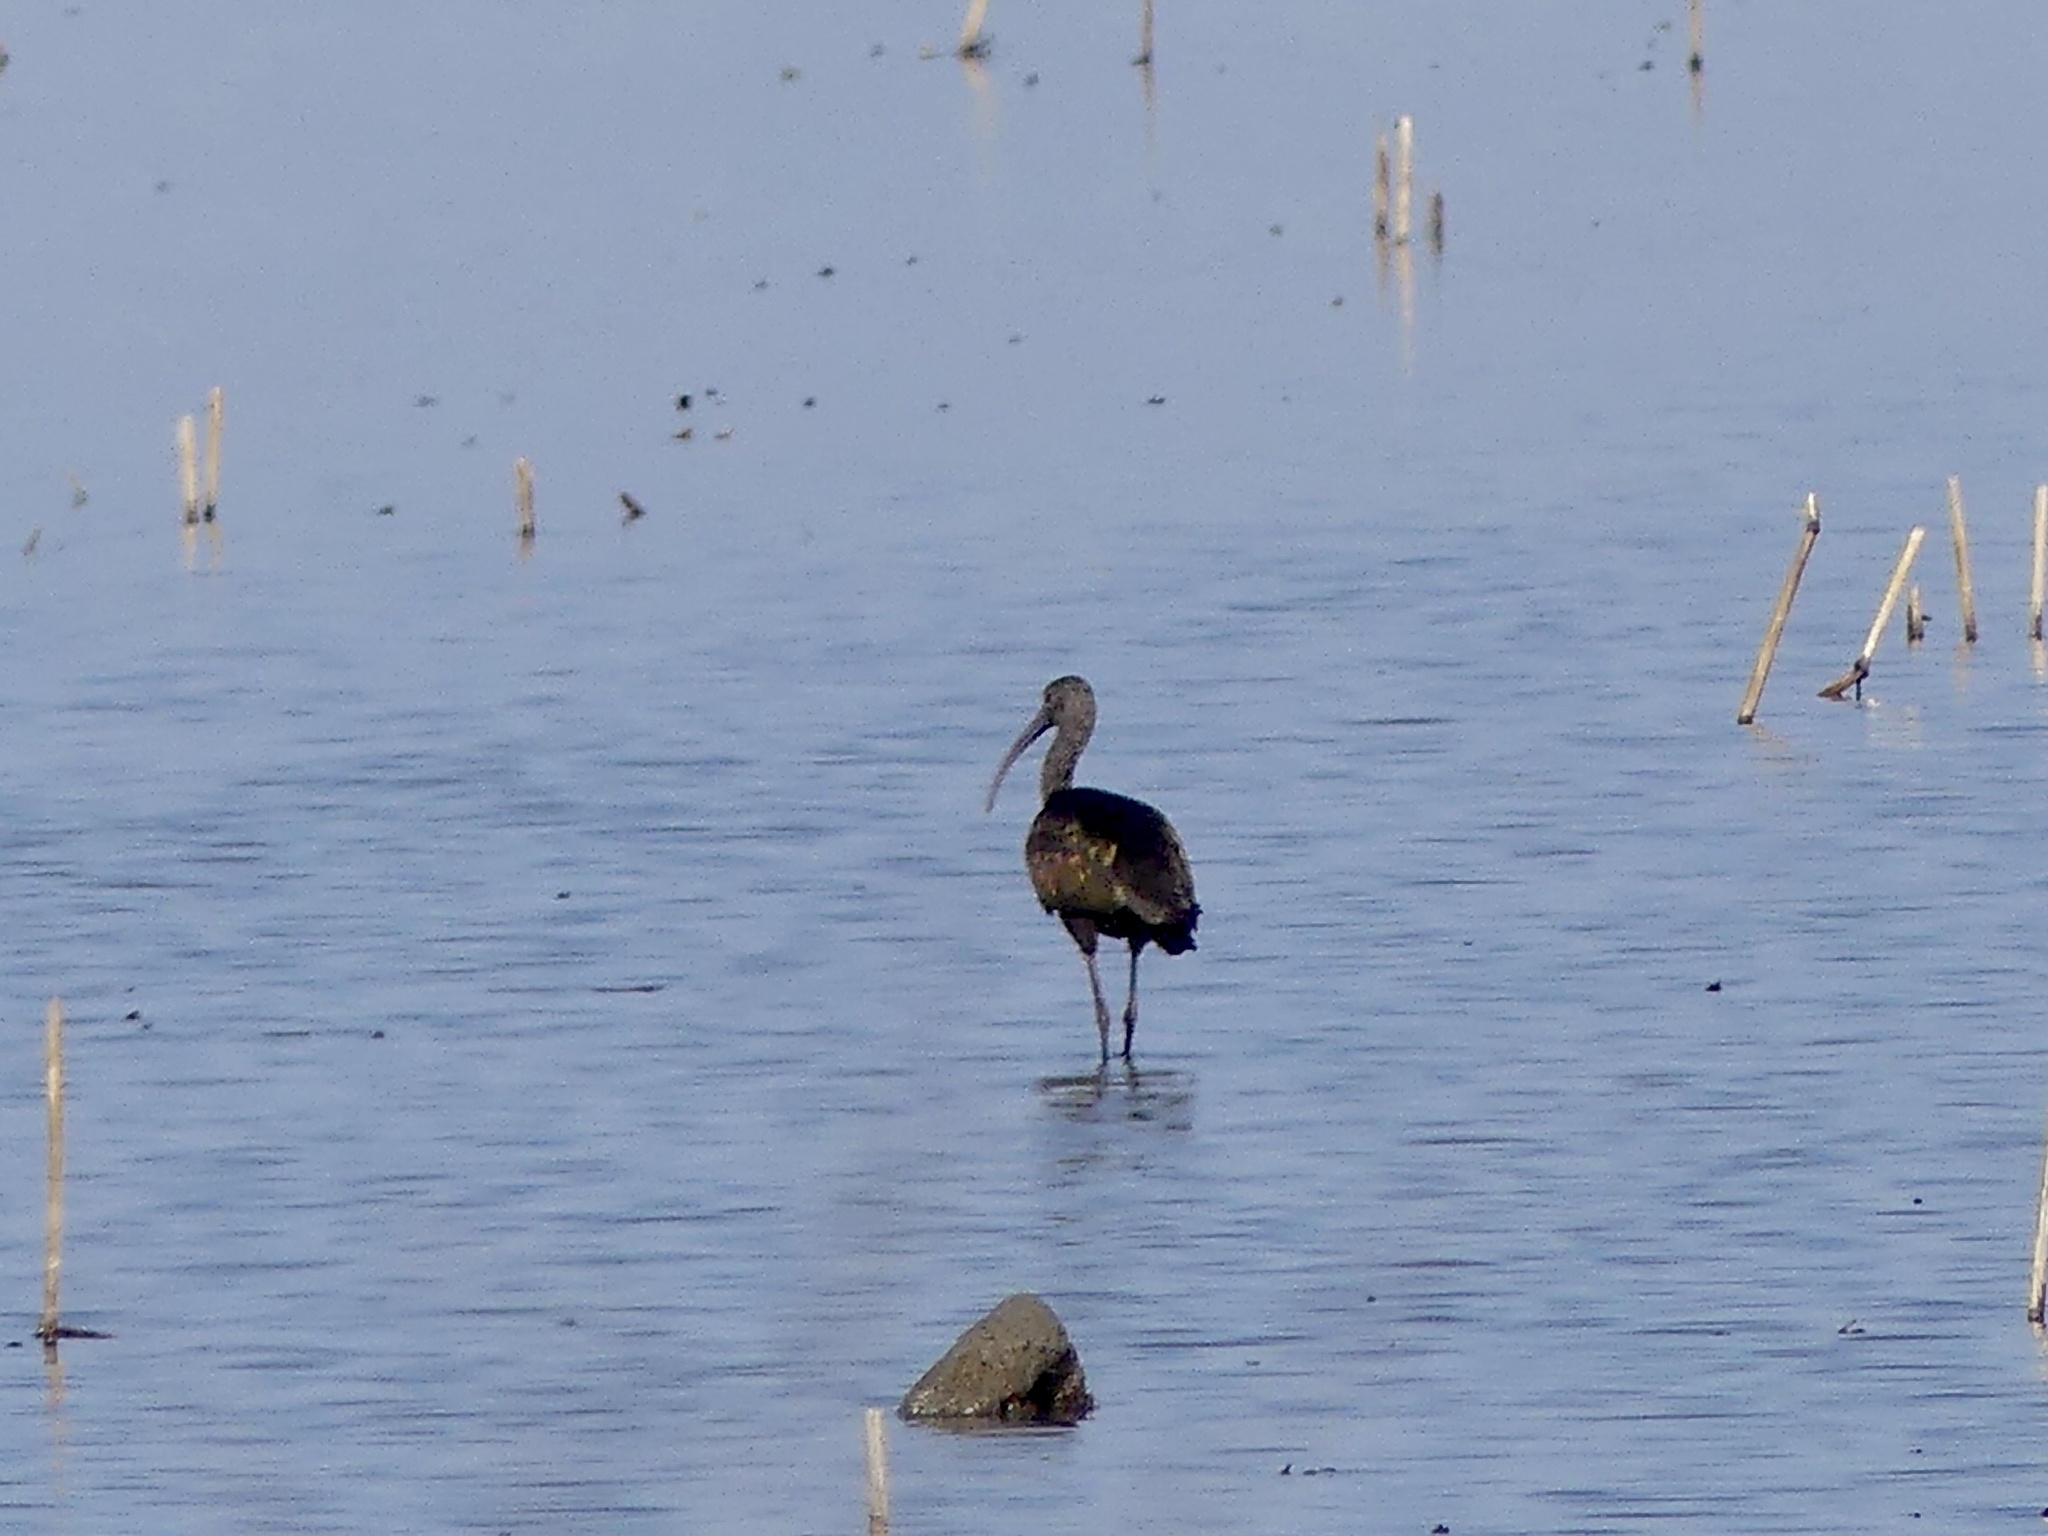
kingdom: Animalia
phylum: Chordata
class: Aves
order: Pelecaniformes
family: Threskiornithidae
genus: Plegadis
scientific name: Plegadis chihi
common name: White-faced ibis
